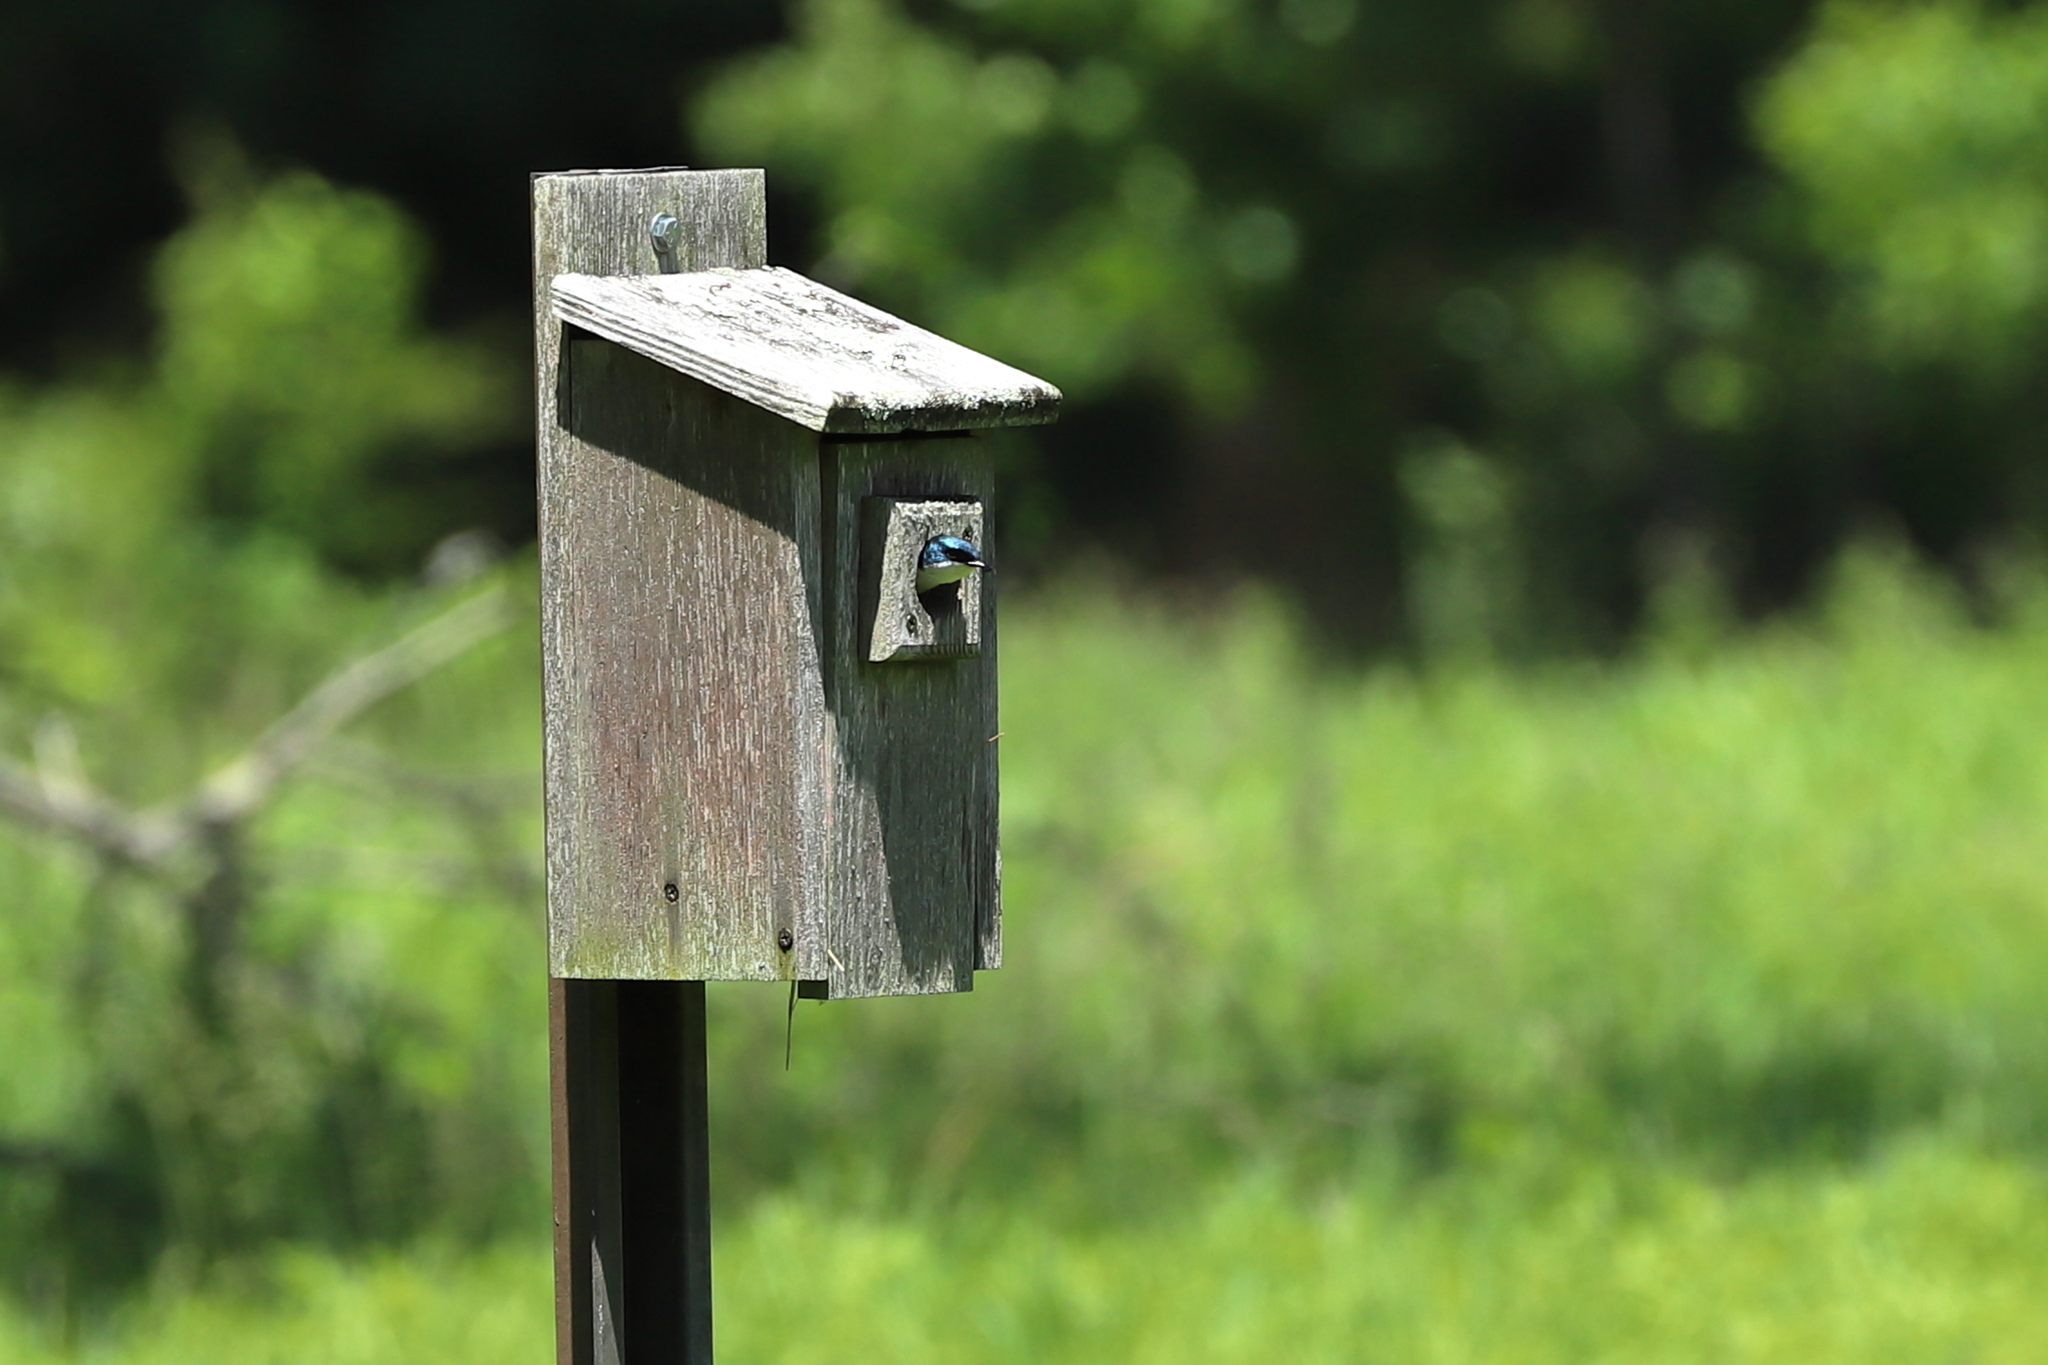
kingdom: Animalia
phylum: Chordata
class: Aves
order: Passeriformes
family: Hirundinidae
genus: Tachycineta
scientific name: Tachycineta bicolor
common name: Tree swallow
